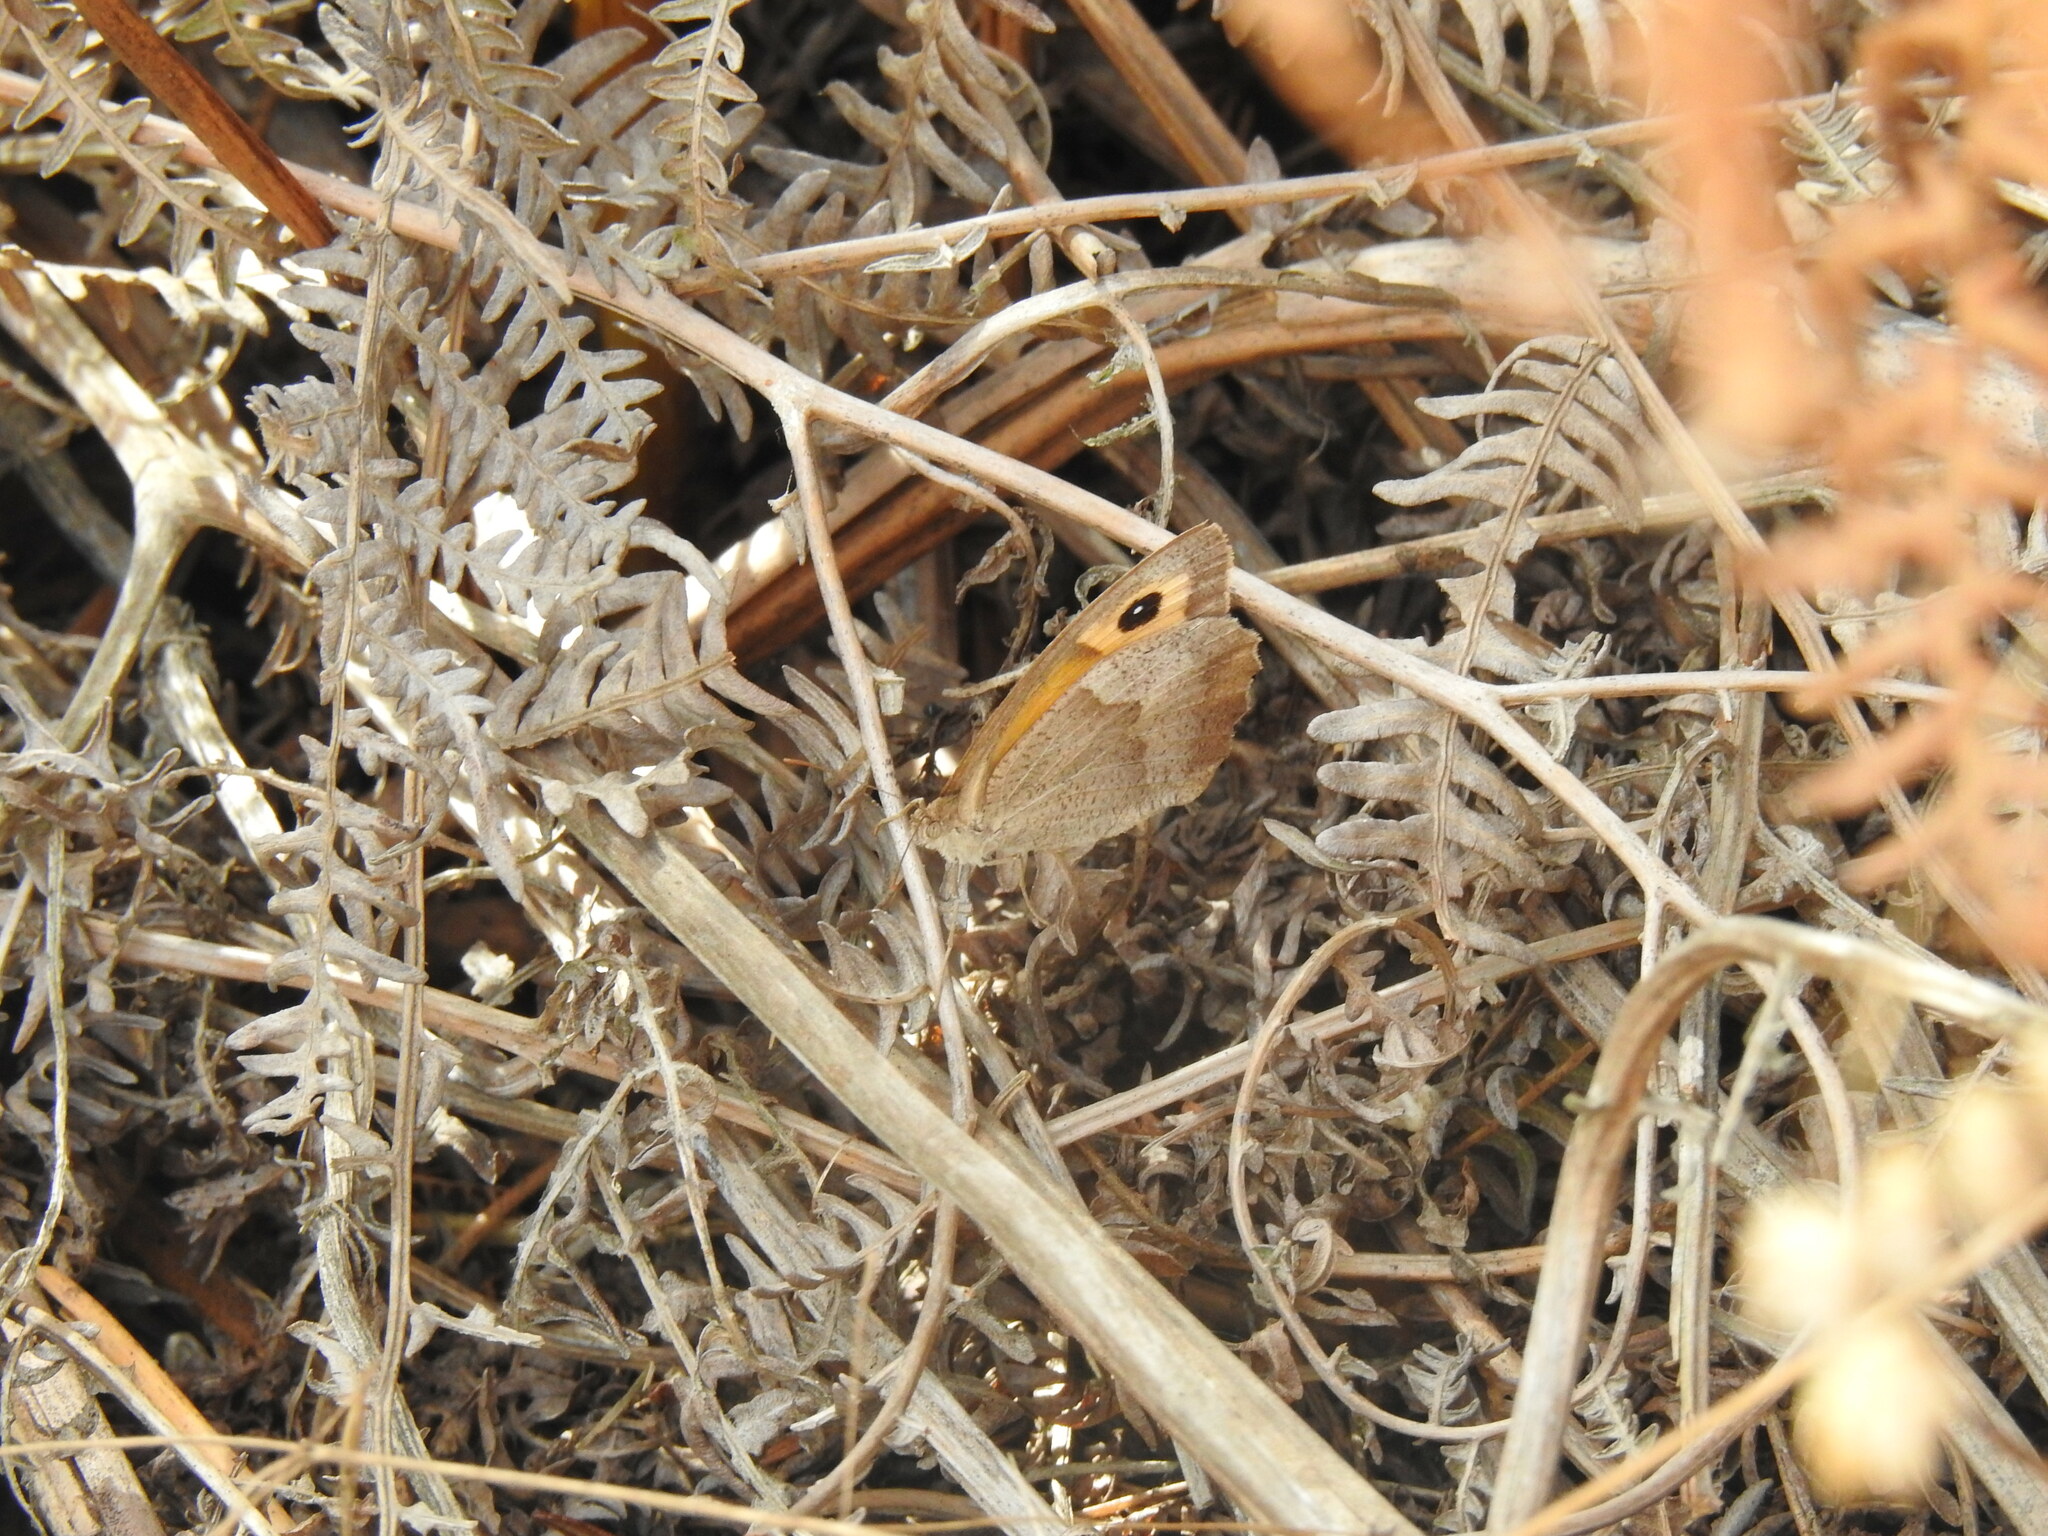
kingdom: Animalia
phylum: Arthropoda
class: Insecta
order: Lepidoptera
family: Nymphalidae
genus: Maniola
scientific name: Maniola jurtina
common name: Meadow brown
